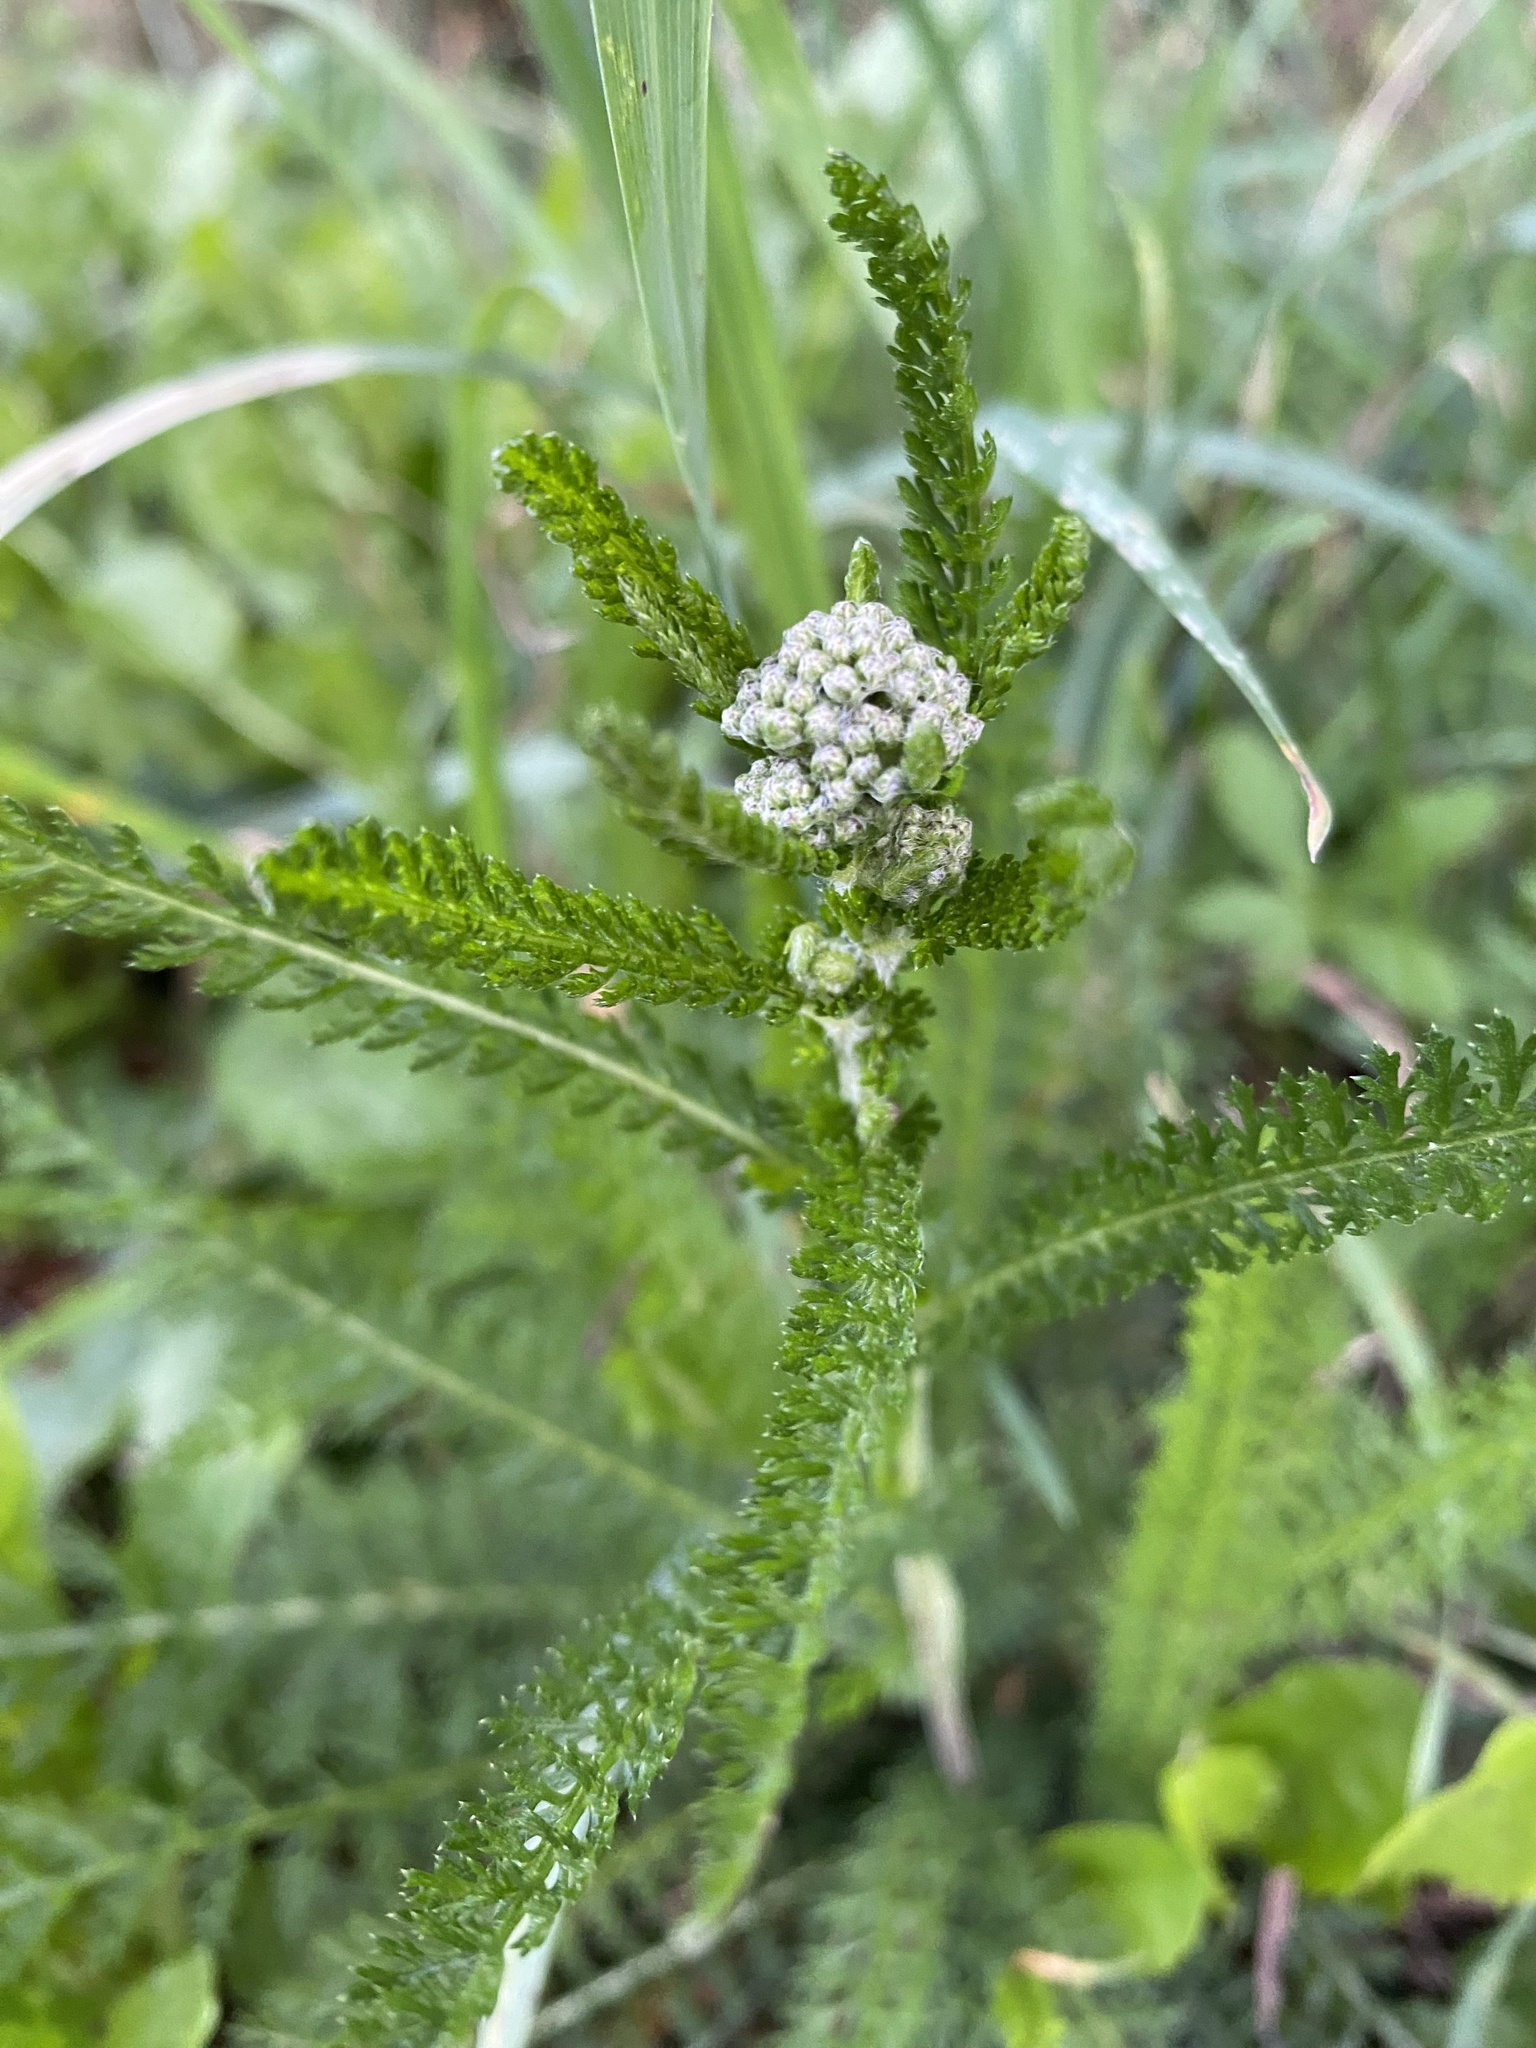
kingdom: Plantae
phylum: Tracheophyta
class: Magnoliopsida
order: Asterales
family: Asteraceae
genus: Achillea
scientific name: Achillea millefolium
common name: Yarrow
